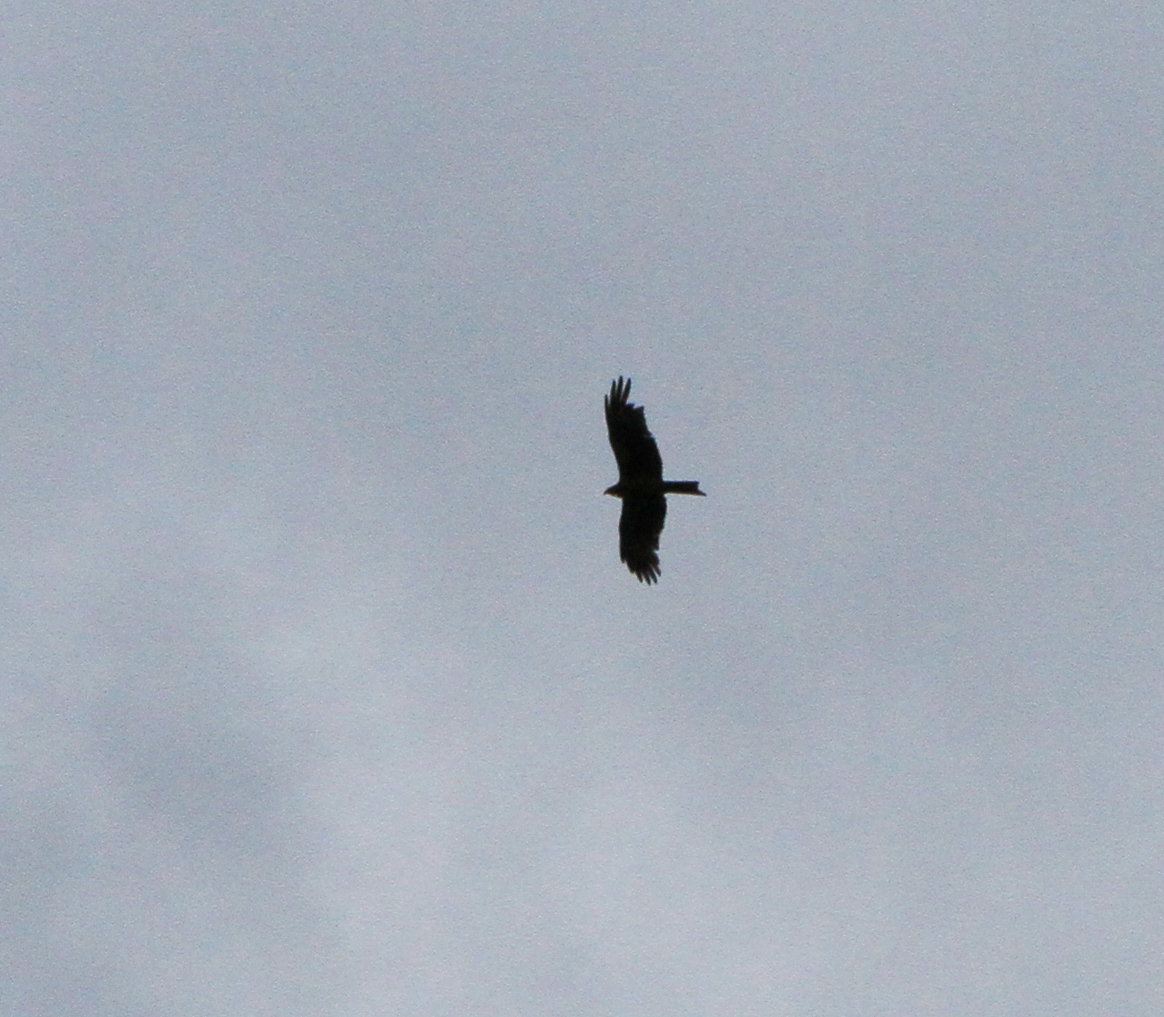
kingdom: Animalia
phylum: Chordata
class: Aves
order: Accipitriformes
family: Accipitridae
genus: Milvus
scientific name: Milvus migrans
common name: Black kite
